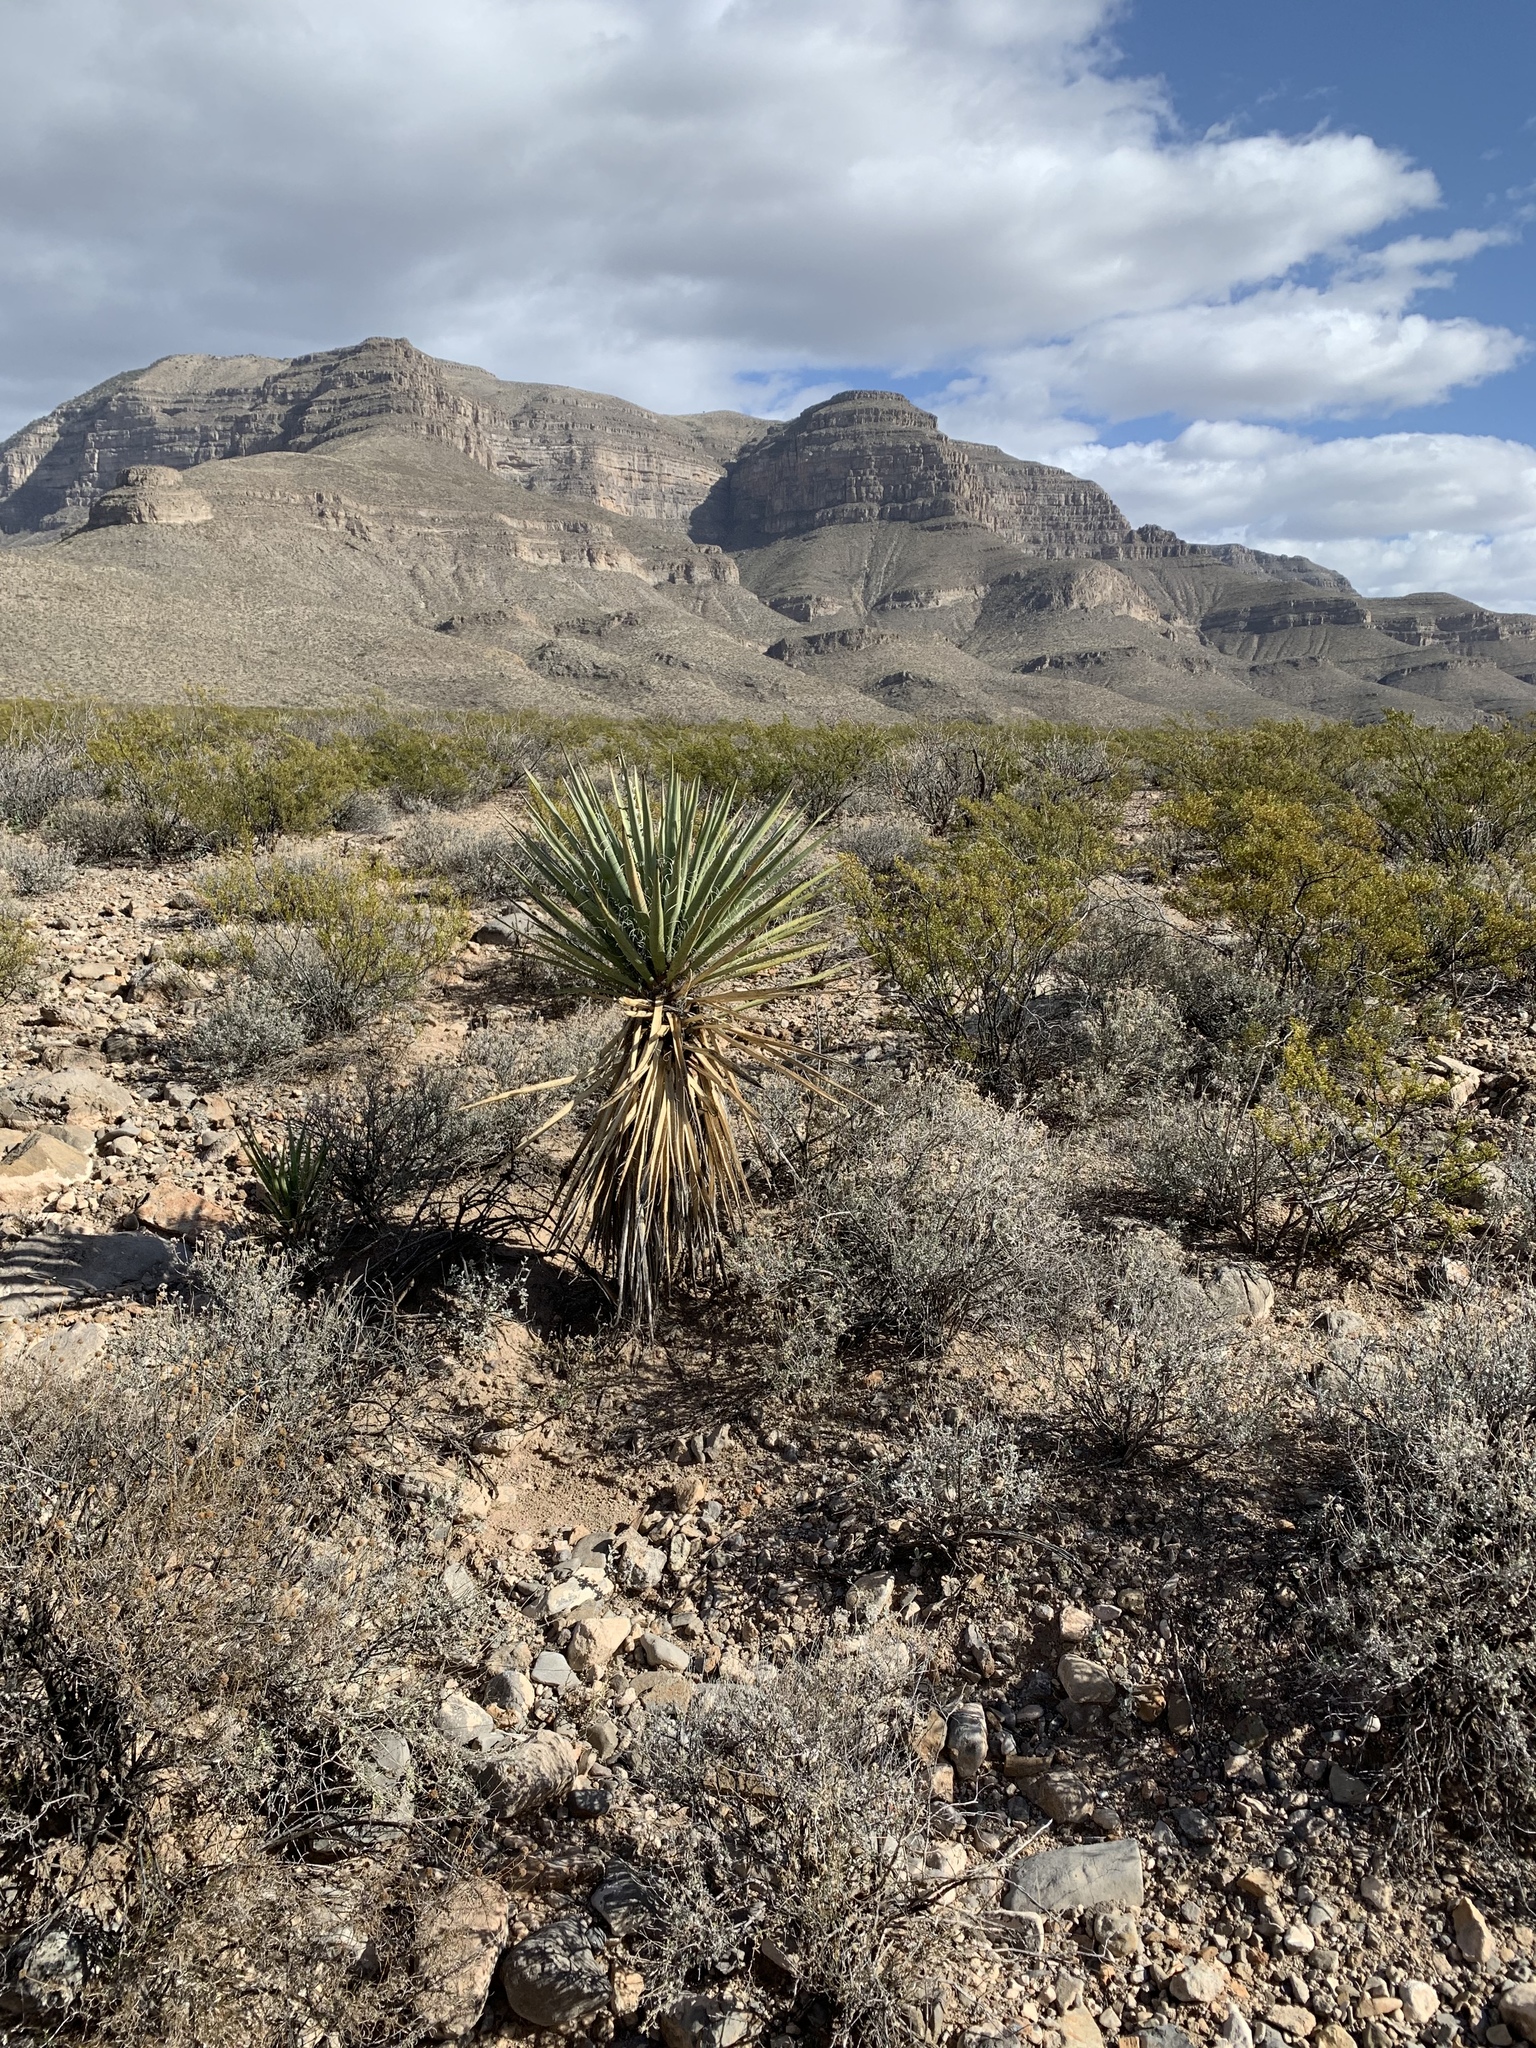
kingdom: Plantae
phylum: Tracheophyta
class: Liliopsida
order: Asparagales
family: Asparagaceae
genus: Yucca
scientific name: Yucca treculiana
